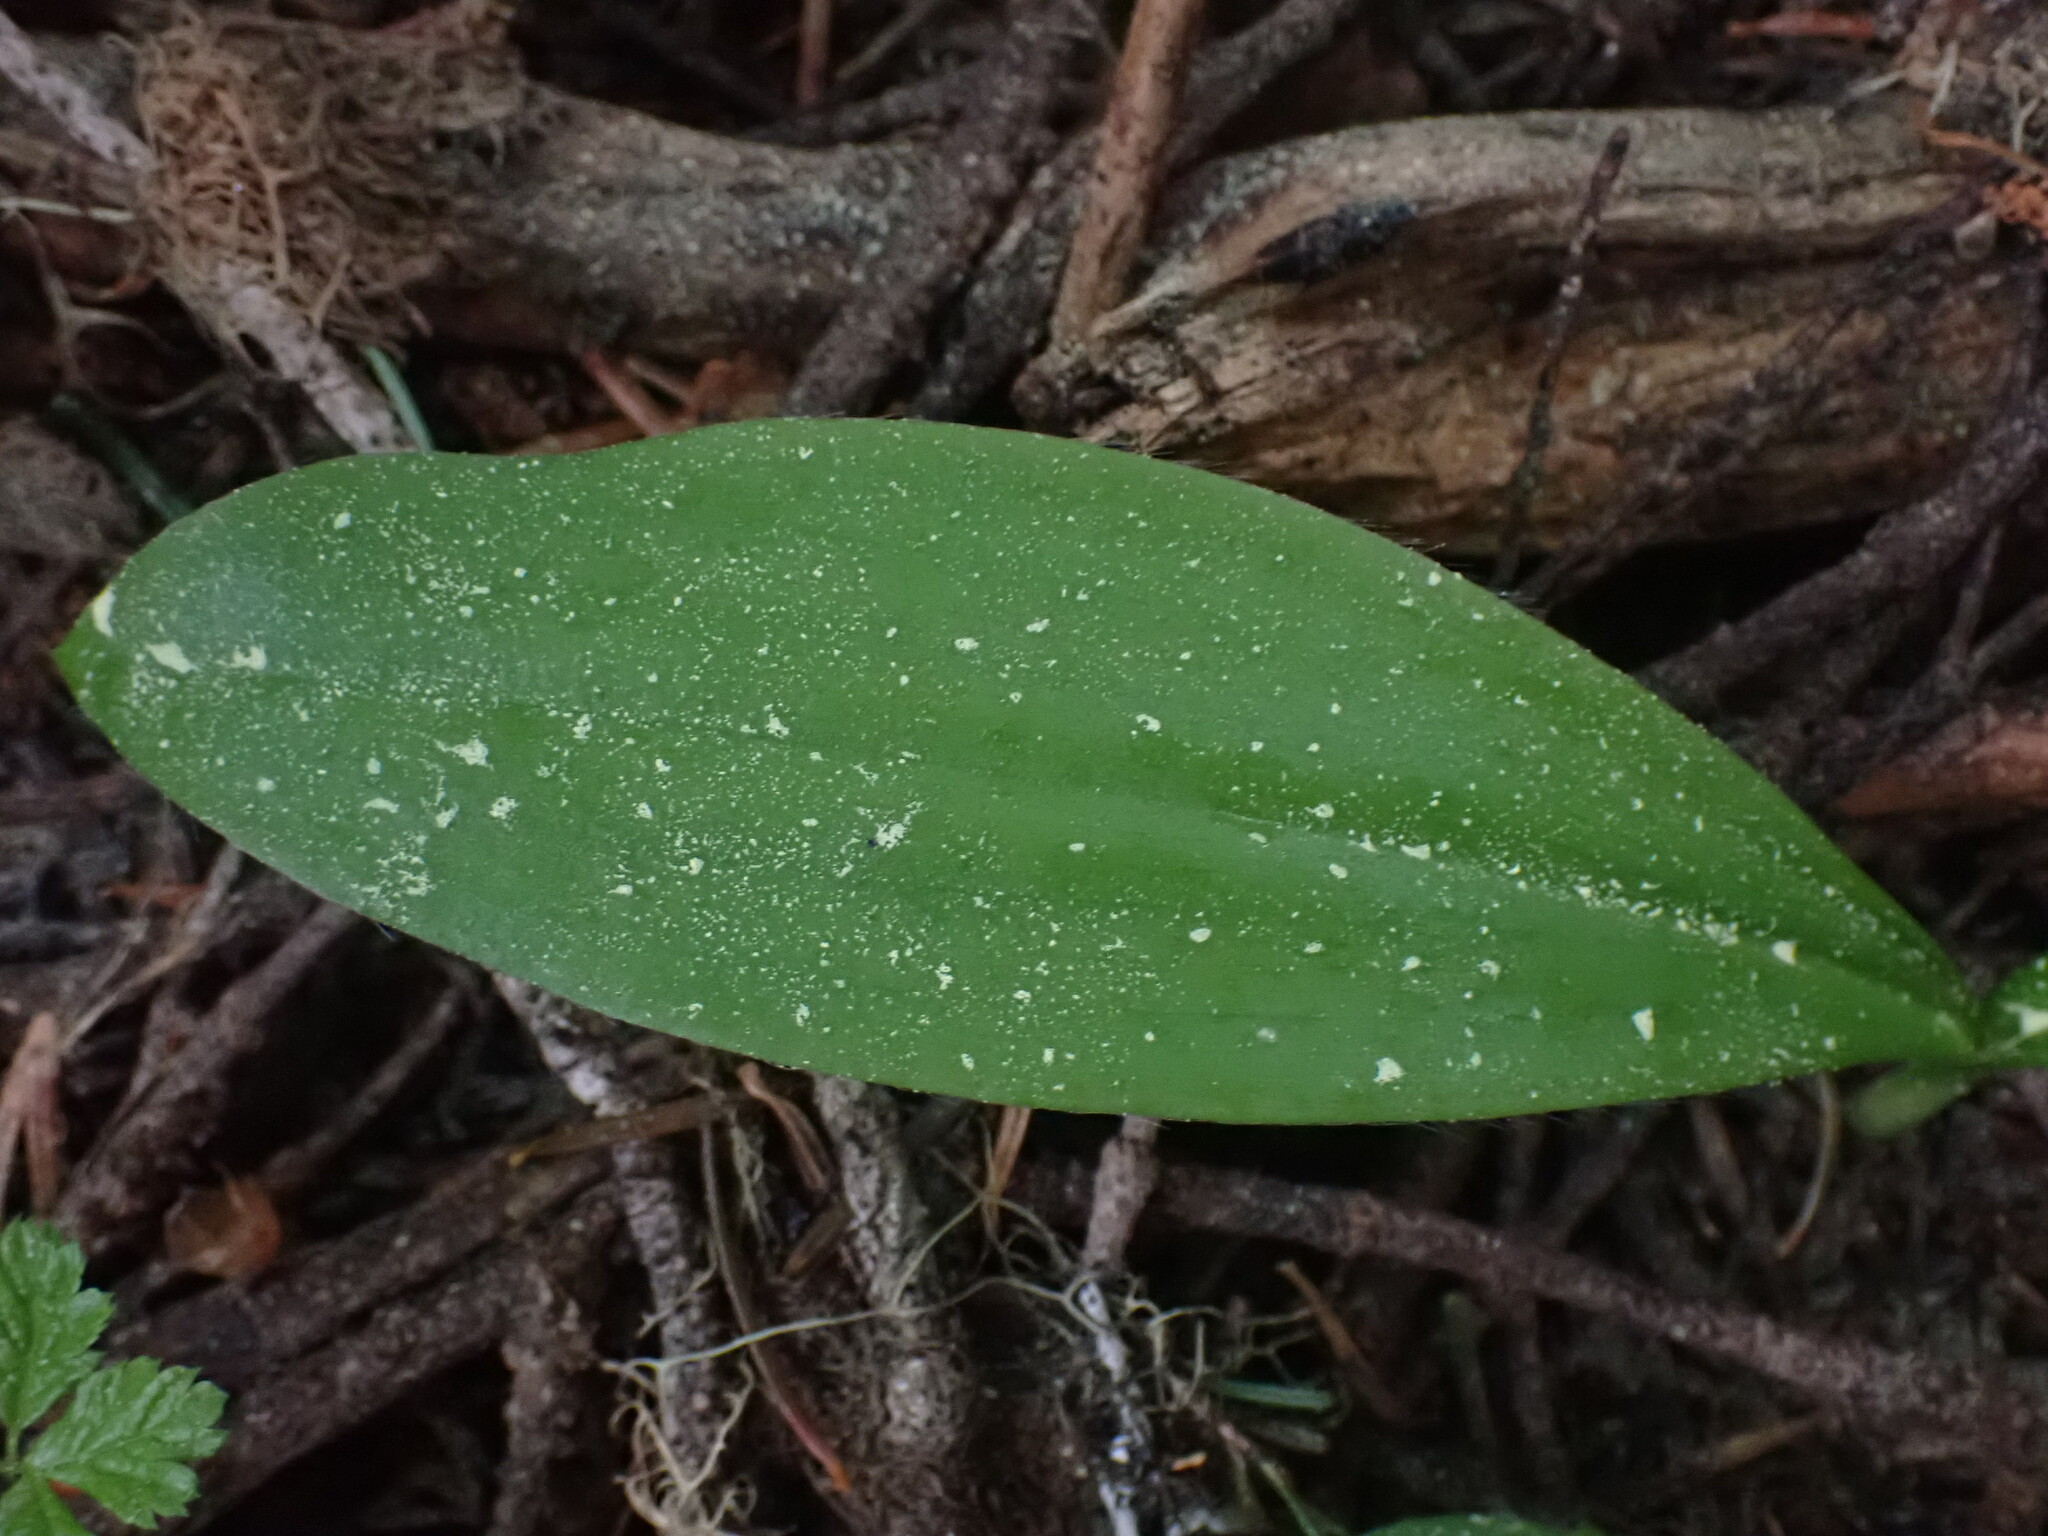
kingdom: Plantae
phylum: Tracheophyta
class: Liliopsida
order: Liliales
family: Liliaceae
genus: Clintonia
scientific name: Clintonia uniflora
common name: Queen's cup
